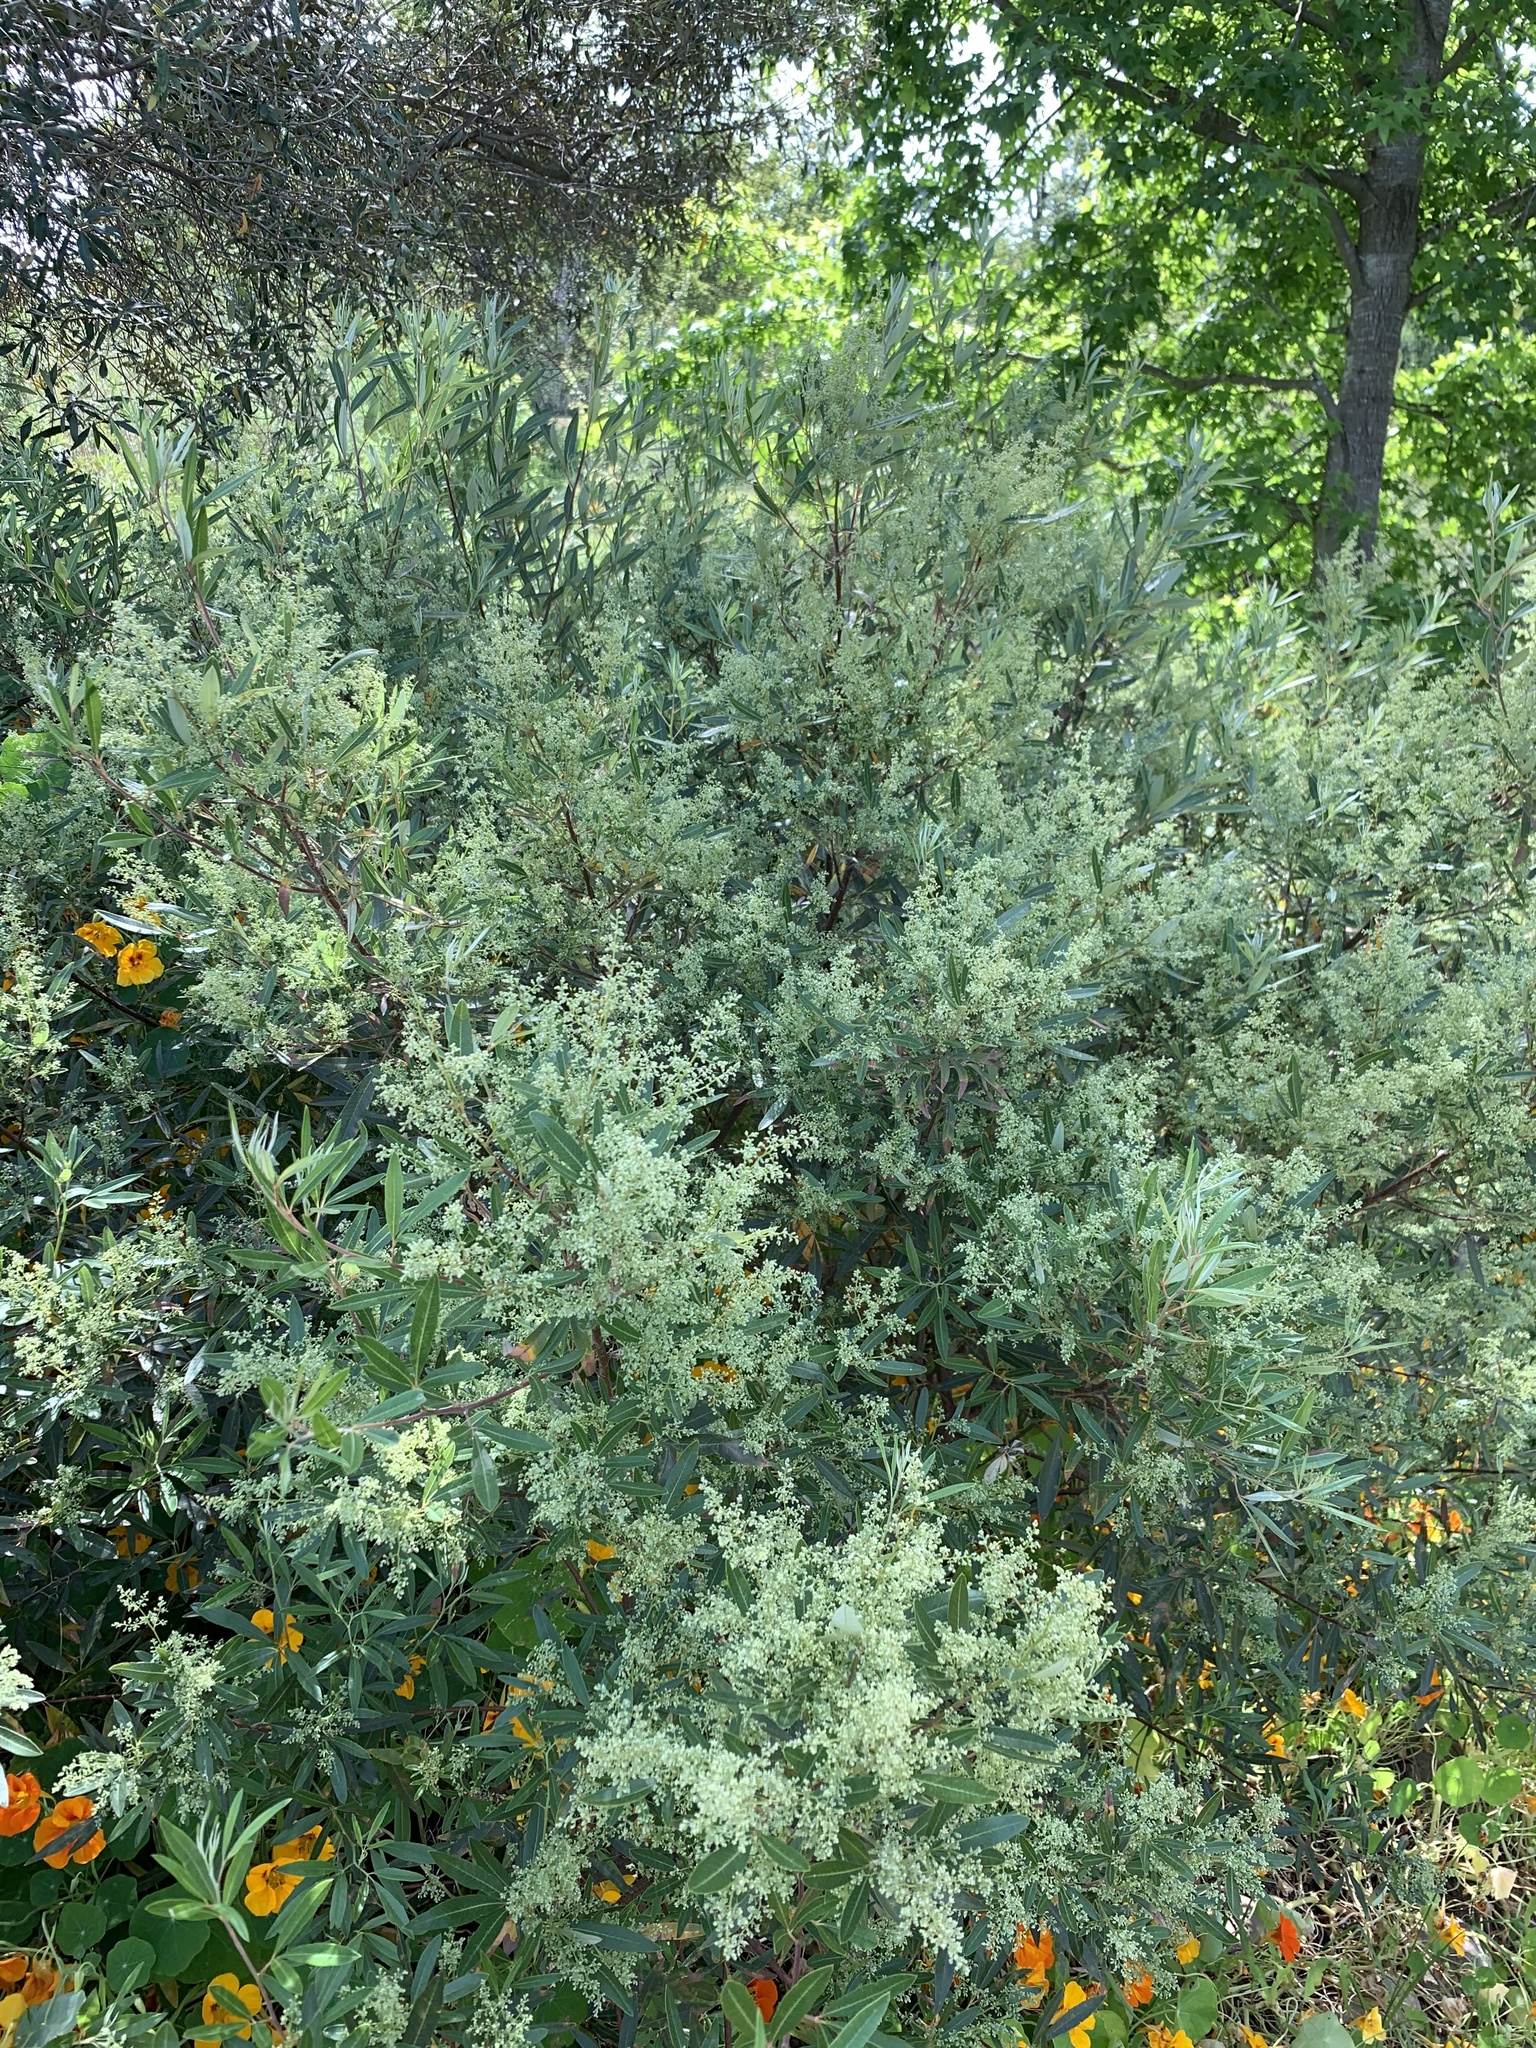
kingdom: Plantae
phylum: Tracheophyta
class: Magnoliopsida
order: Sapindales
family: Anacardiaceae
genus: Searsia
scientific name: Searsia angustifolia
